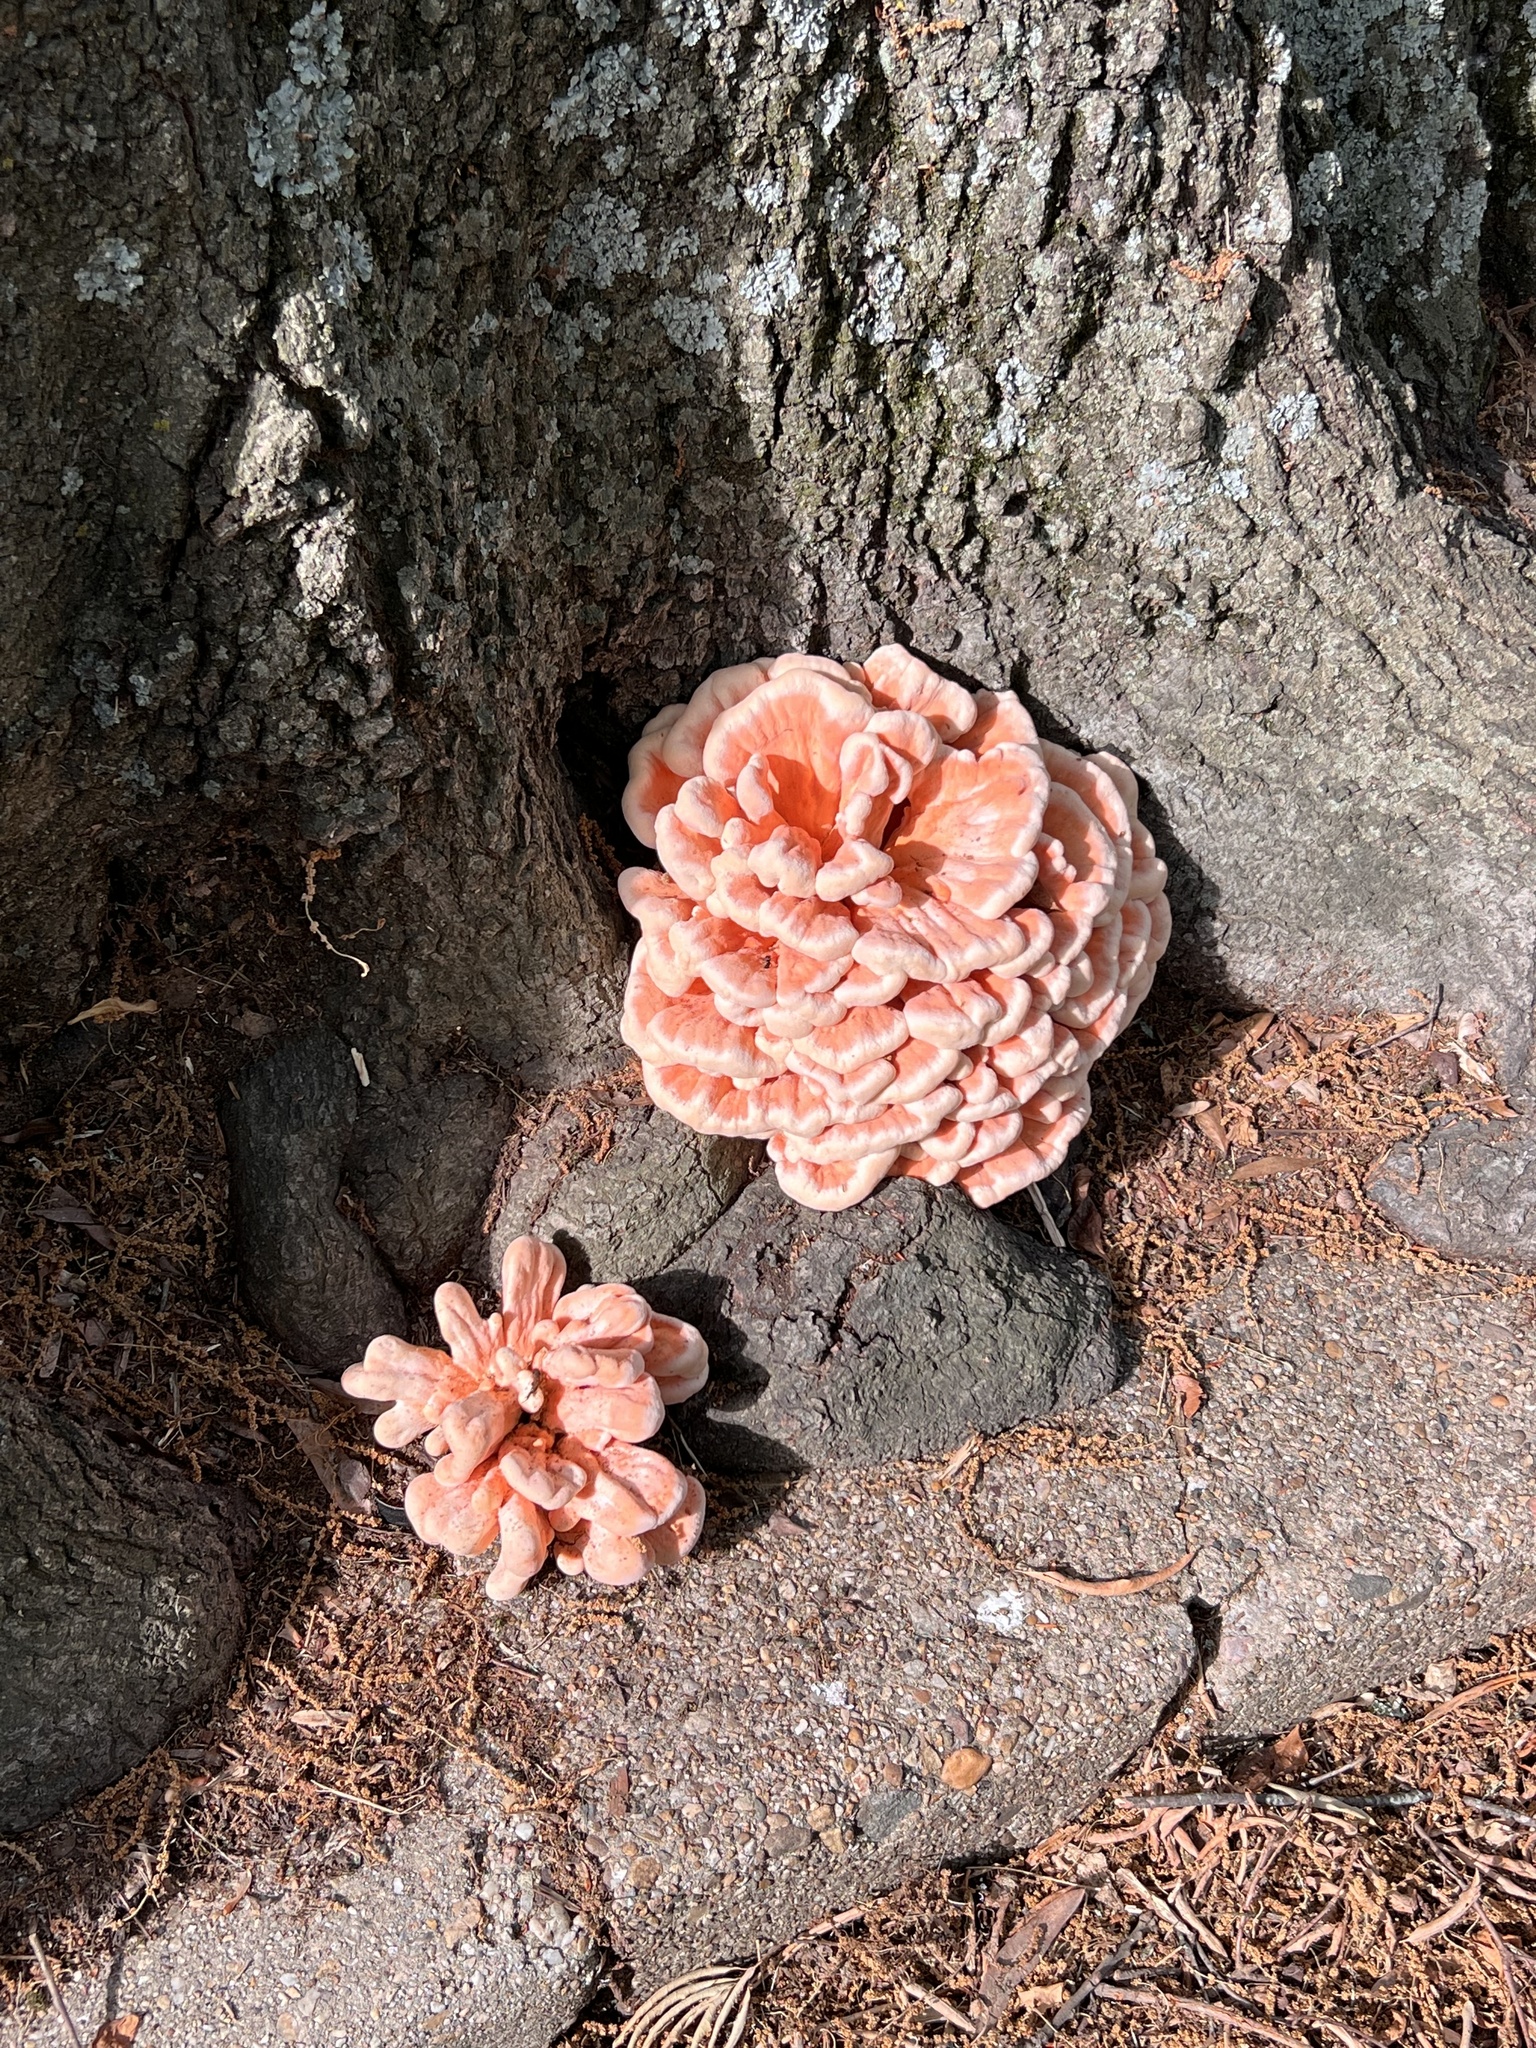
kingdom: Fungi
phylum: Basidiomycota
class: Agaricomycetes
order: Polyporales
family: Laetiporaceae
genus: Laetiporus
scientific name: Laetiporus sulphureus
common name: Chicken of the woods
